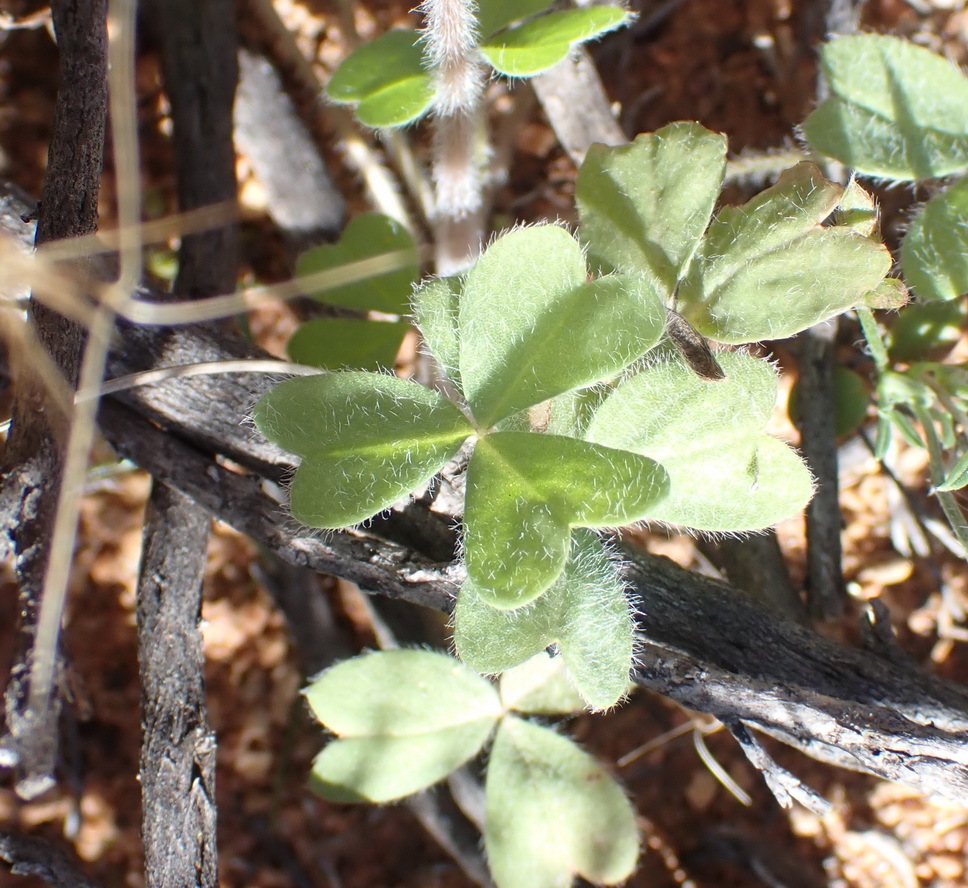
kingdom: Plantae
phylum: Tracheophyta
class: Magnoliopsida
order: Oxalidales
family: Oxalidaceae
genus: Oxalis
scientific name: Oxalis obtusa
